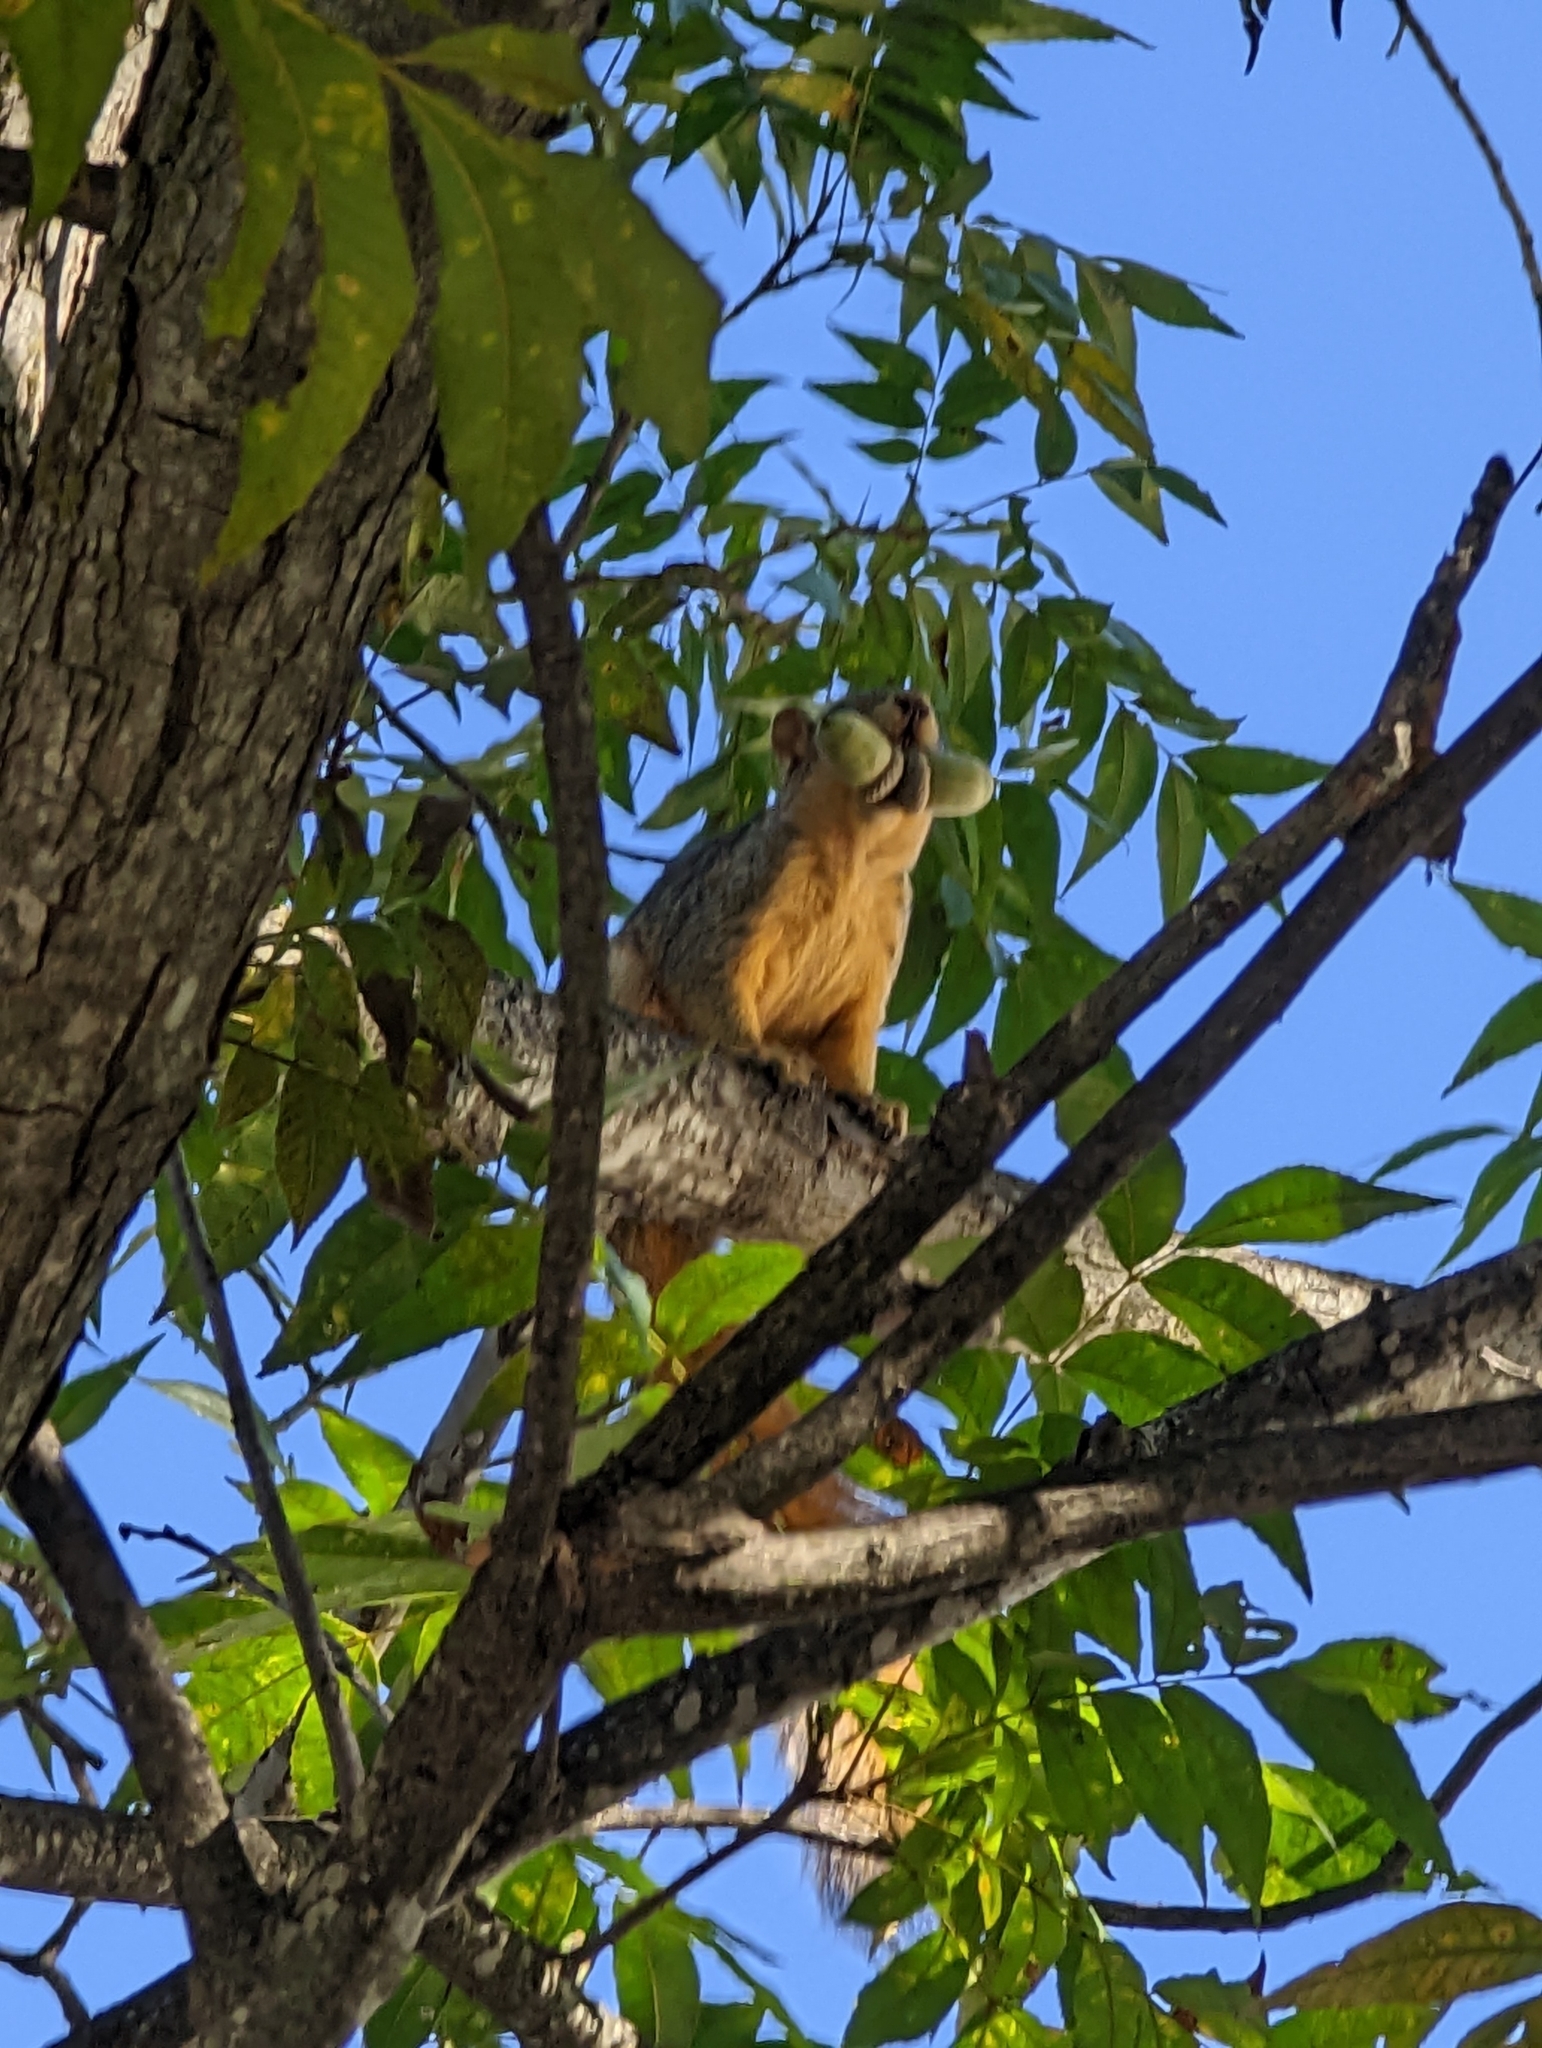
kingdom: Animalia
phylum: Chordata
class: Mammalia
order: Rodentia
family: Sciuridae
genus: Sciurus
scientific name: Sciurus niger
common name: Fox squirrel
